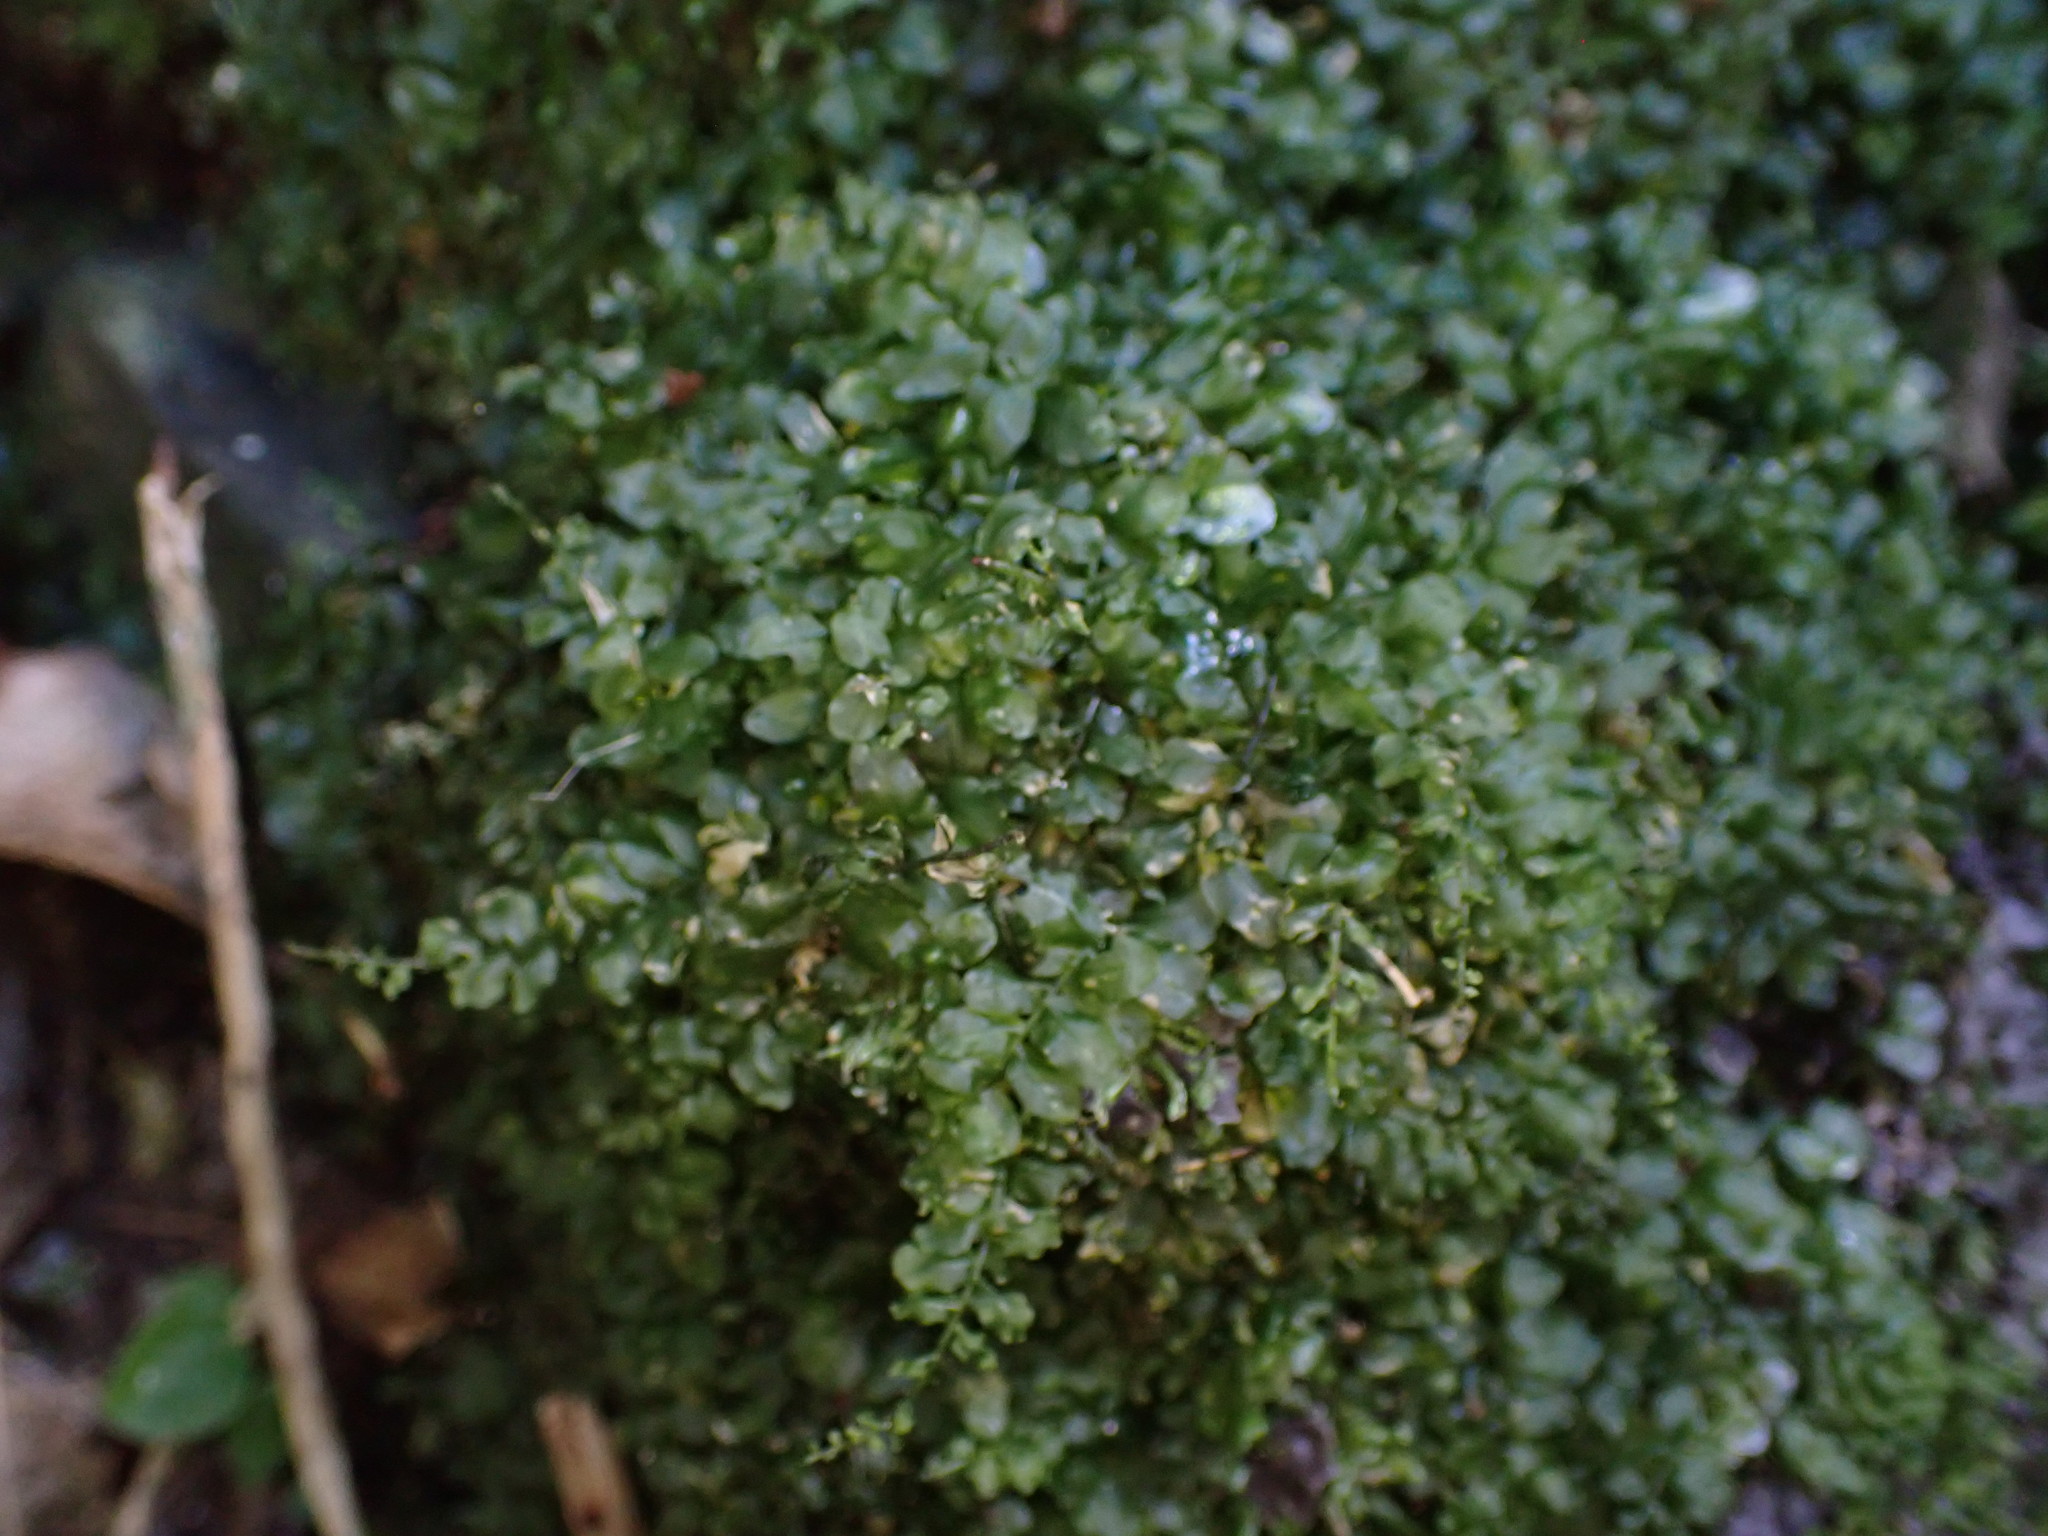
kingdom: Plantae
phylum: Bryophyta
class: Bryopsida
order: Bryales
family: Mniaceae
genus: Plagiomnium
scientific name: Plagiomnium novae-zealandiae
